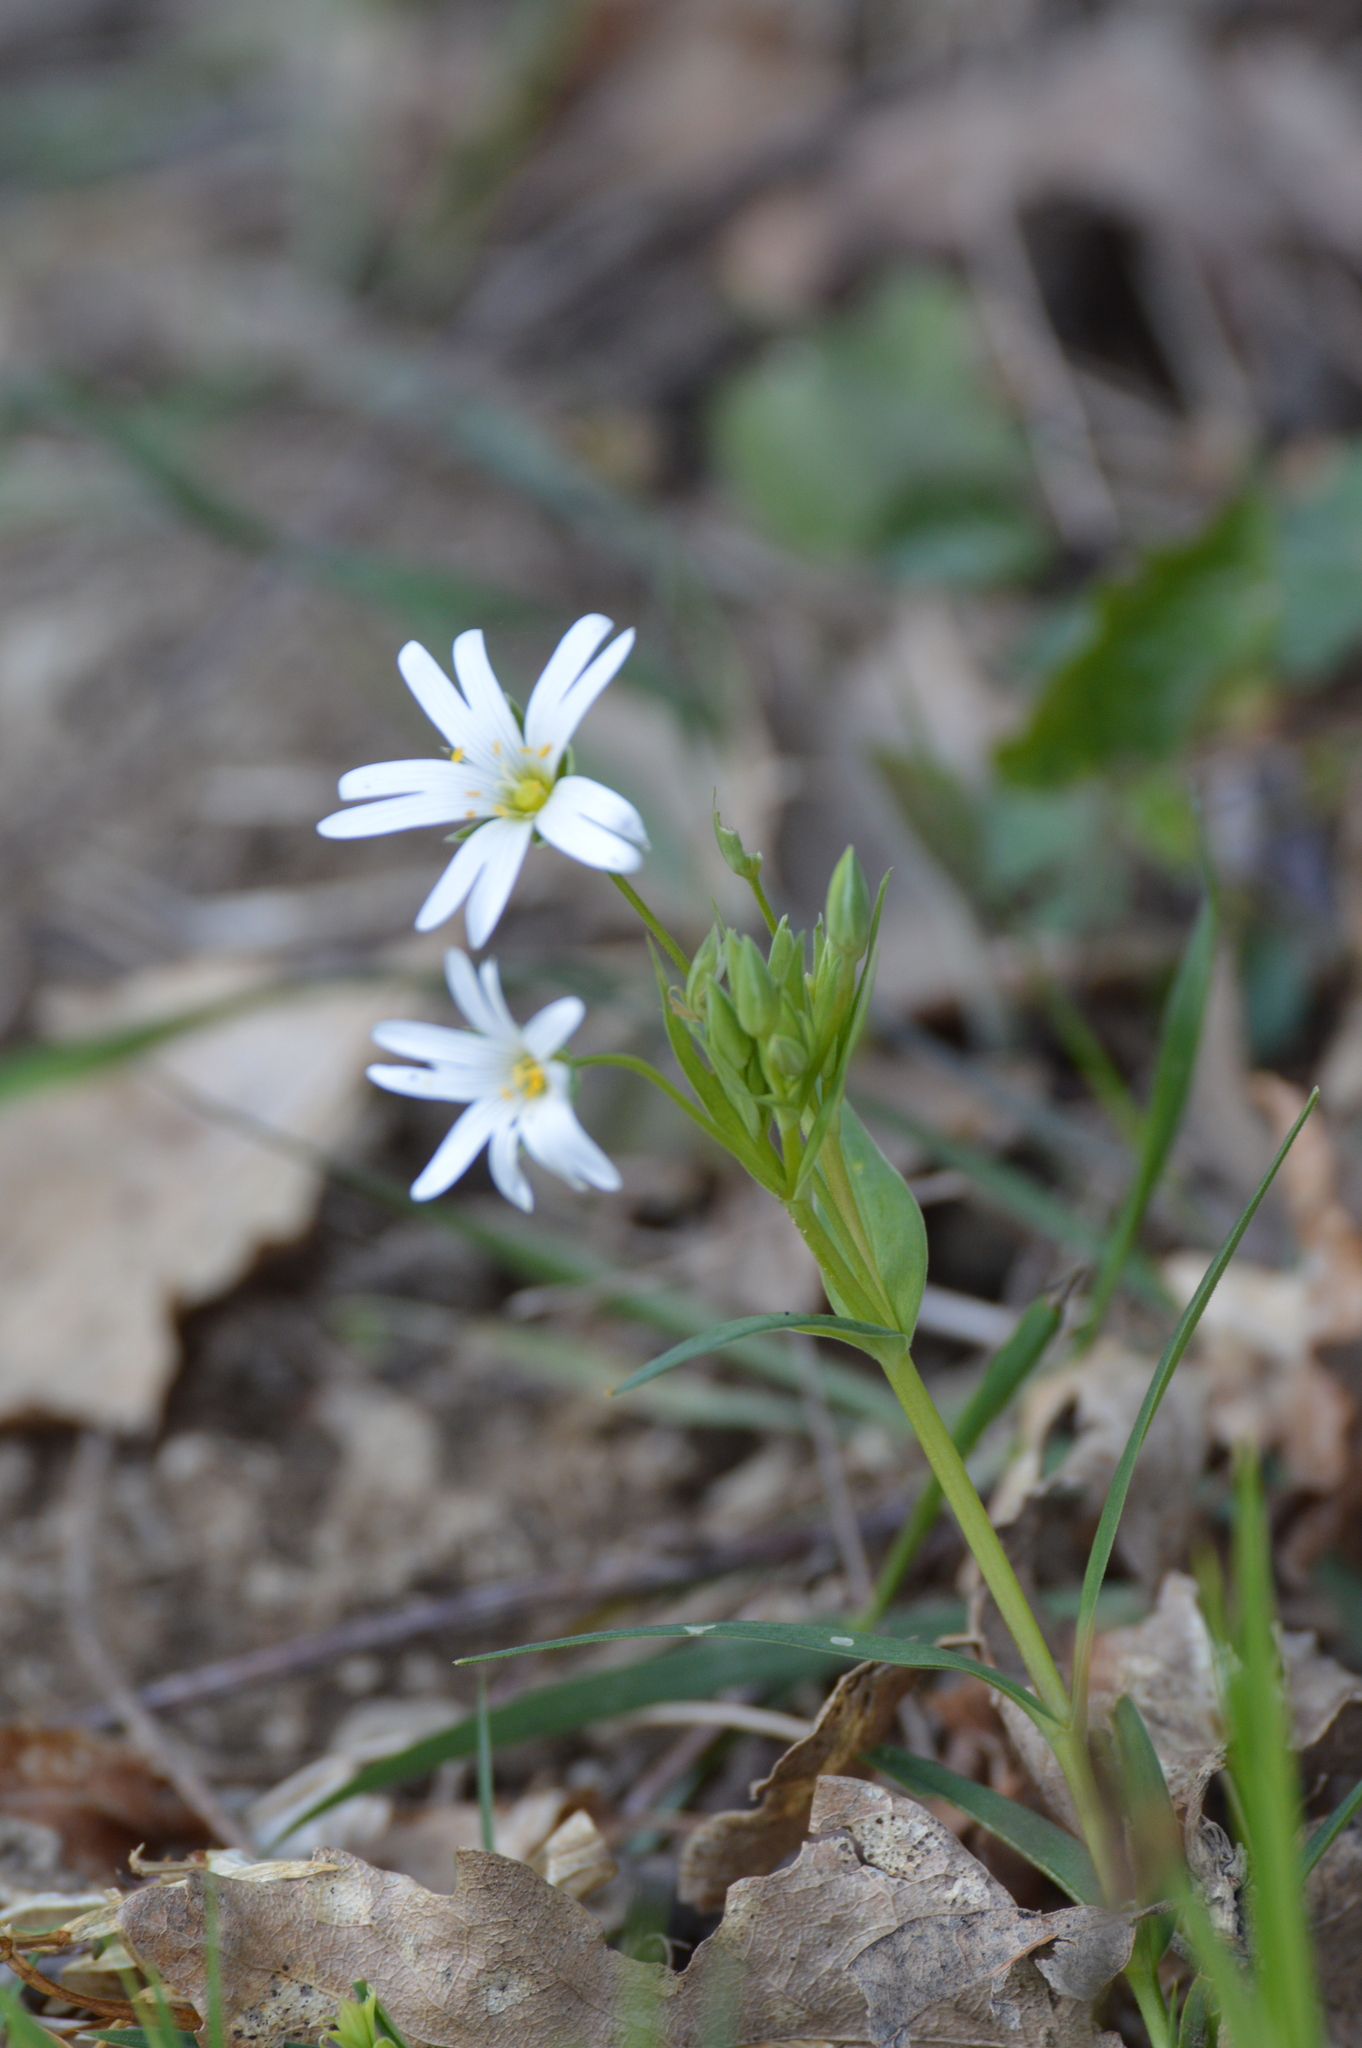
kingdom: Plantae
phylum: Tracheophyta
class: Magnoliopsida
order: Caryophyllales
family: Caryophyllaceae
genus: Rabelera
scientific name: Rabelera holostea
